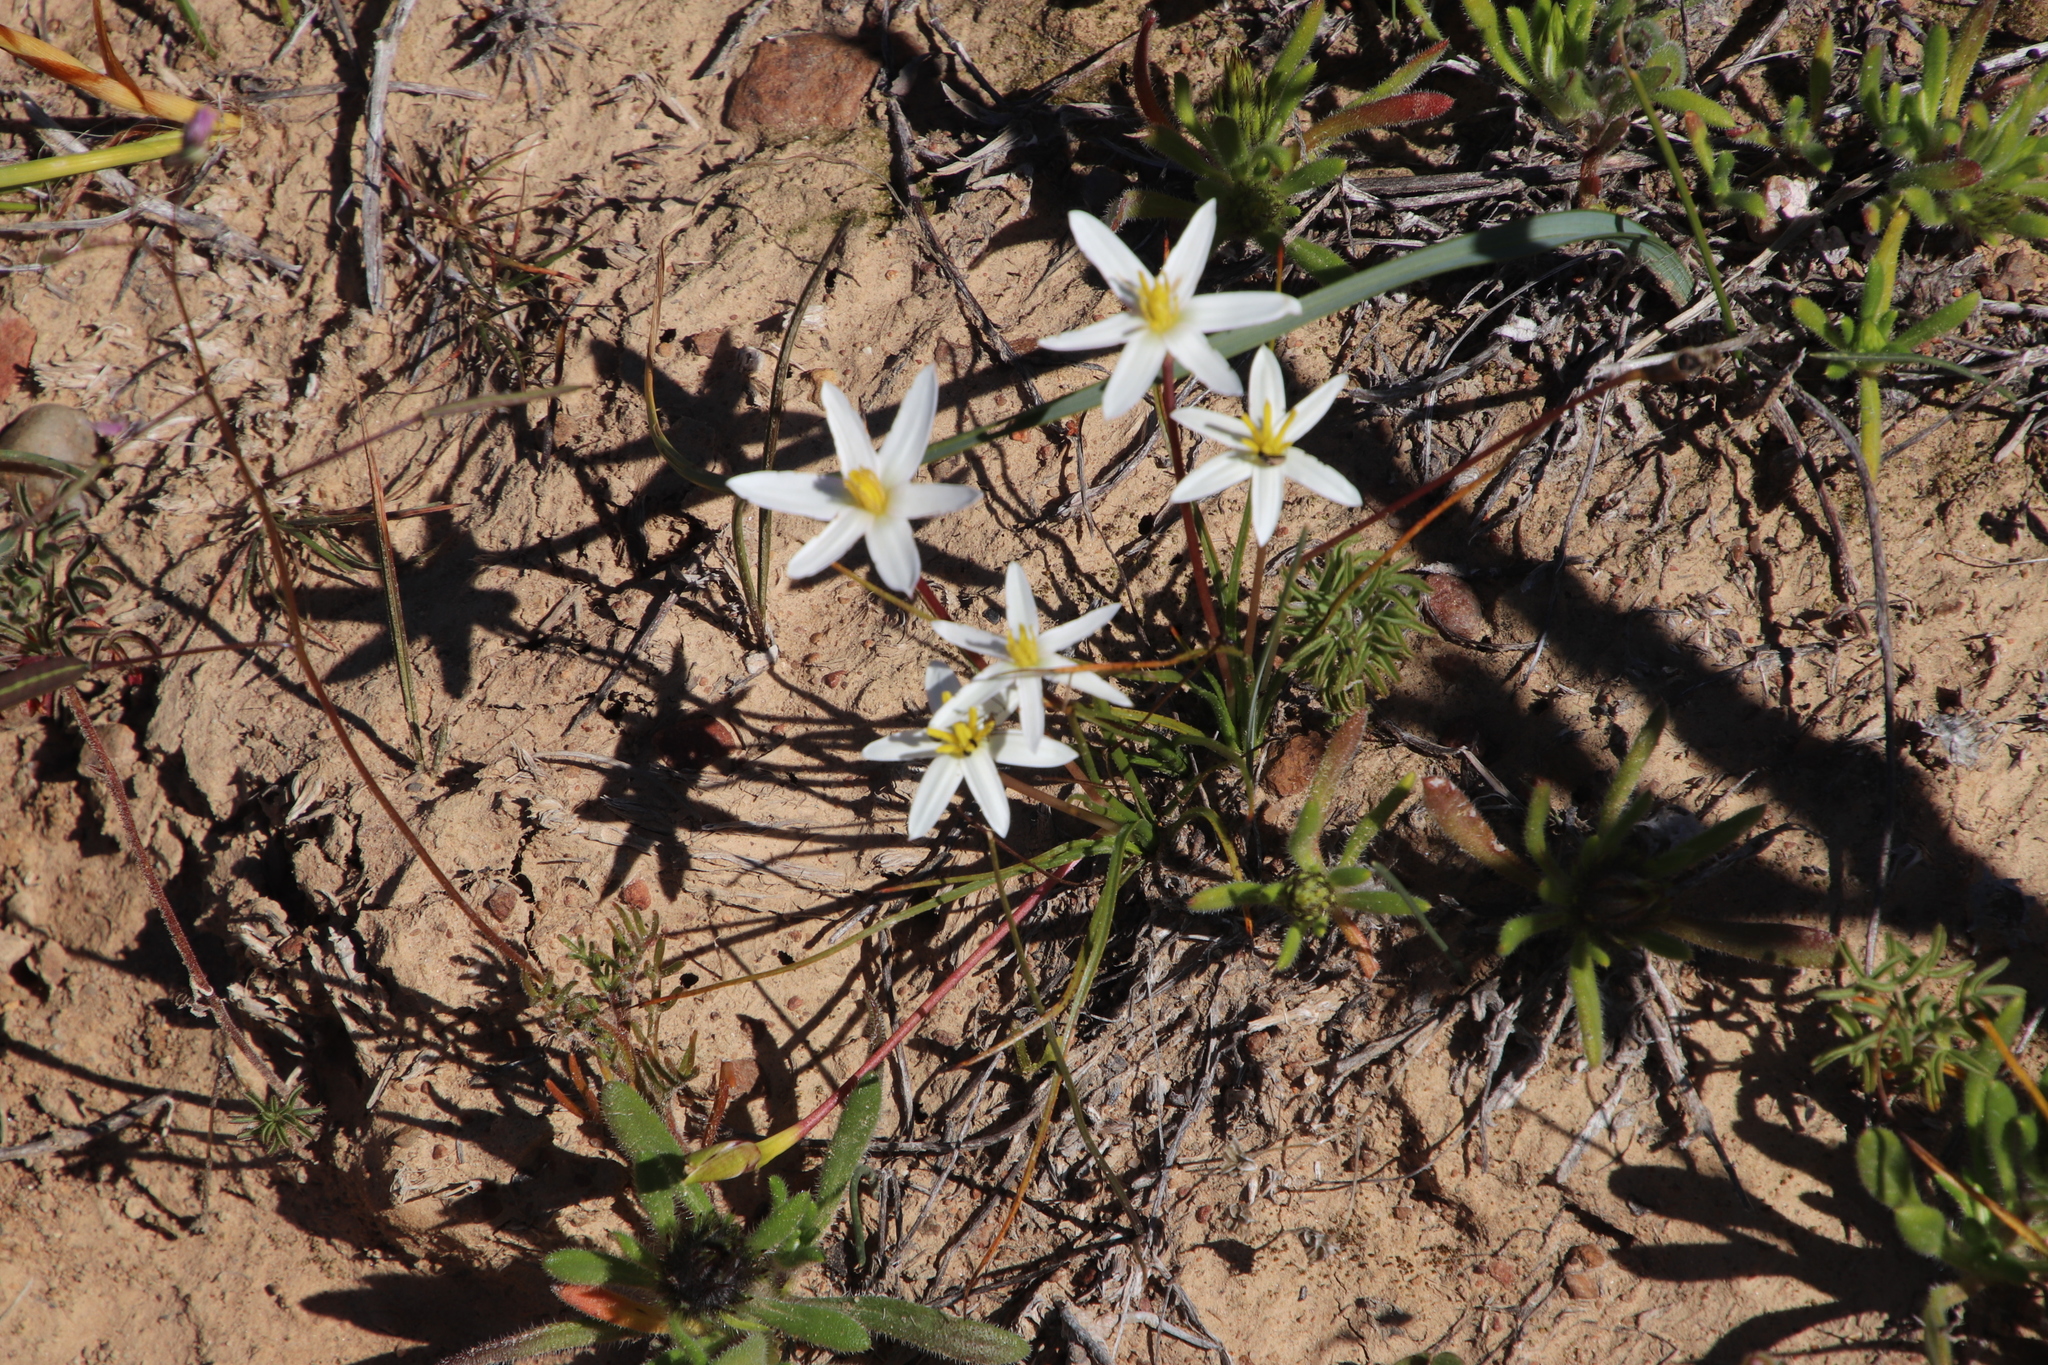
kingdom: Plantae
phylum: Tracheophyta
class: Liliopsida
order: Asparagales
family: Hypoxidaceae
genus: Pauridia
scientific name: Pauridia serrata
